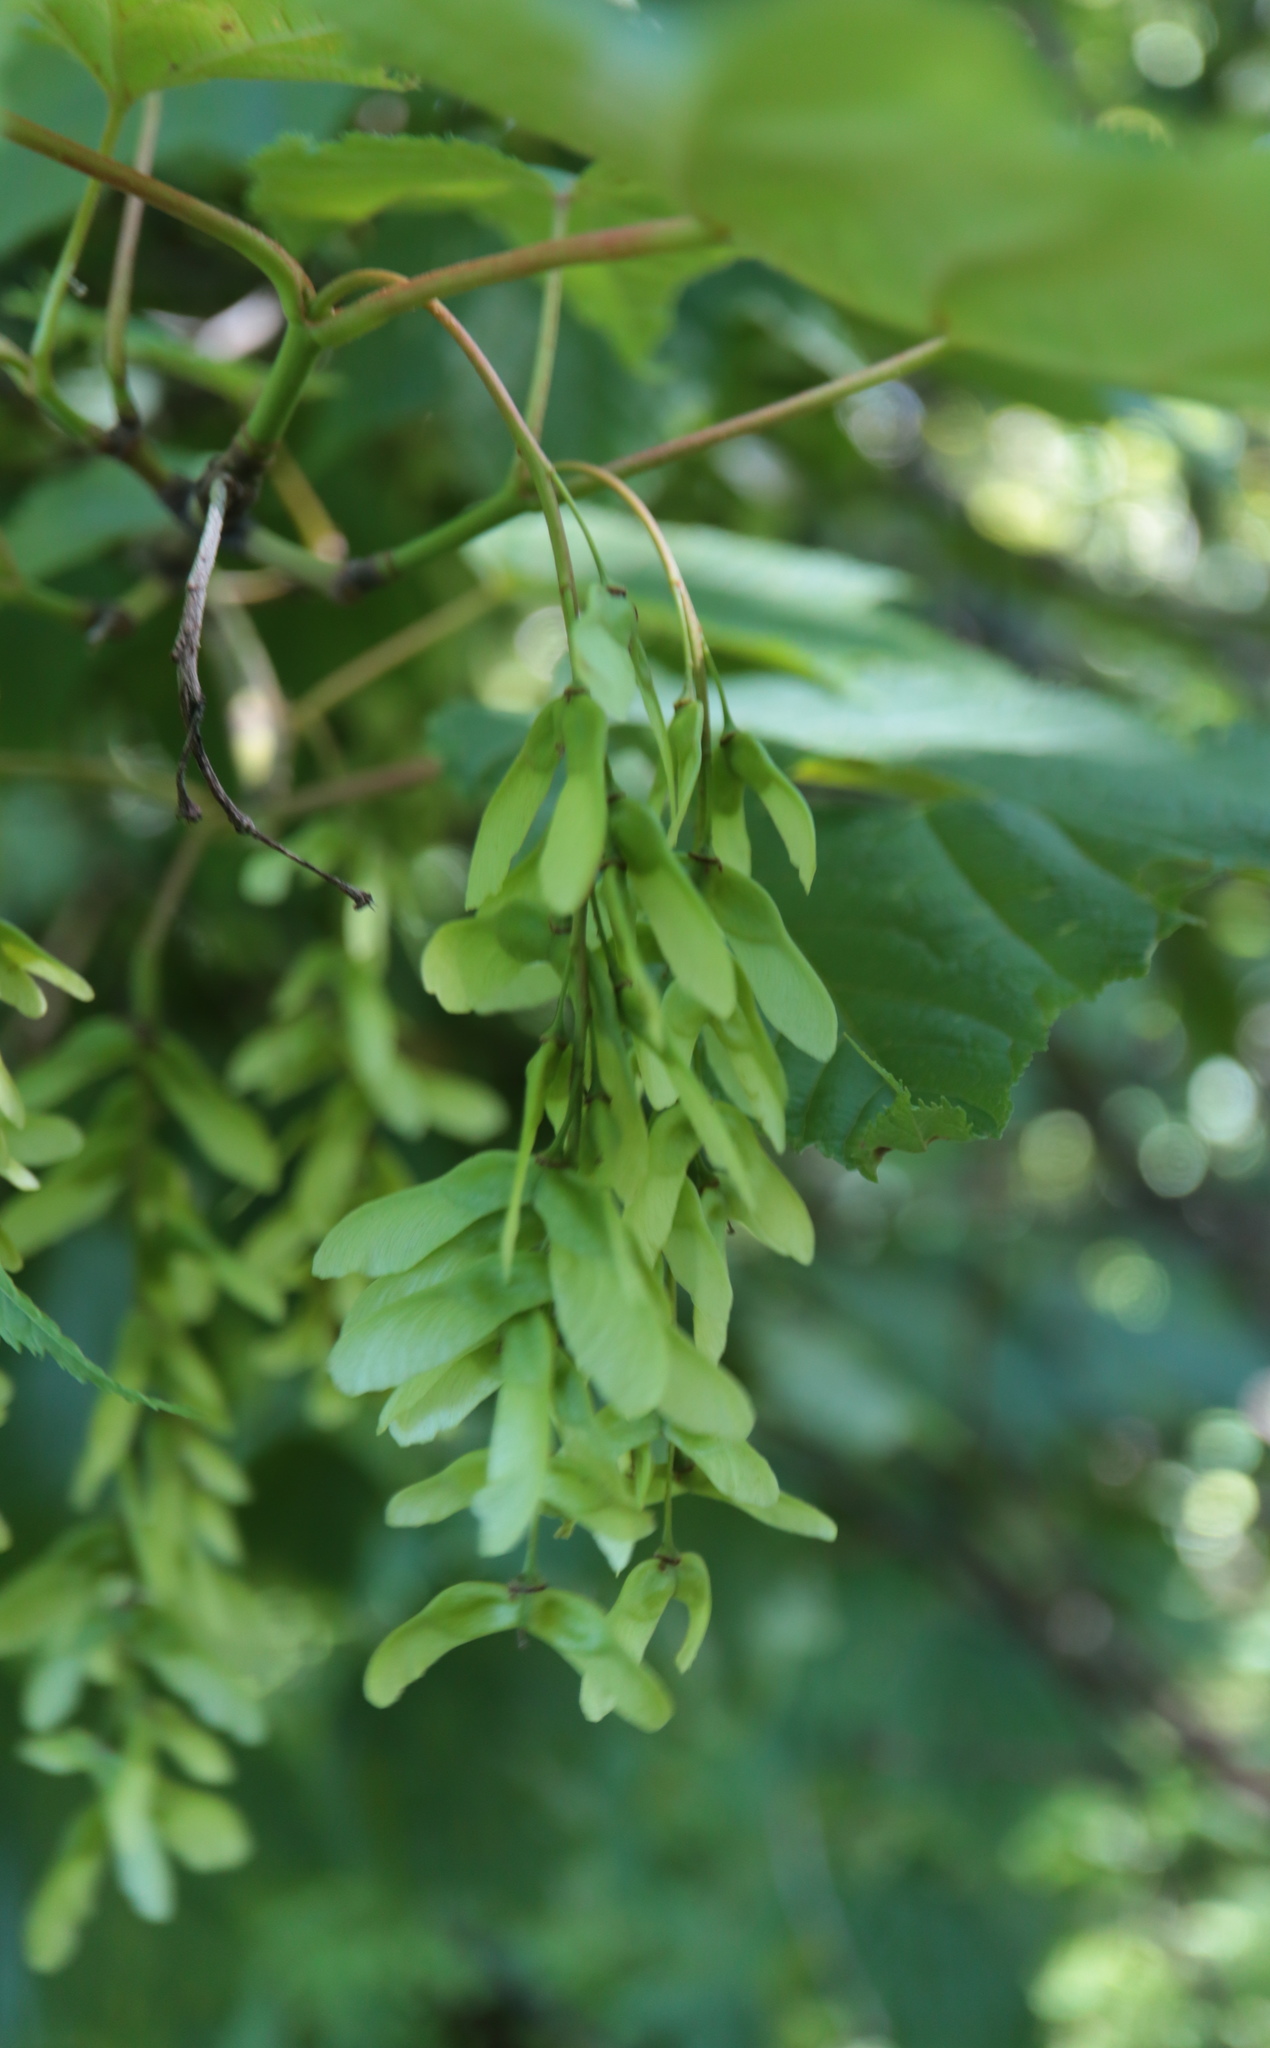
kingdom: Plantae
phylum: Tracheophyta
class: Magnoliopsida
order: Sapindales
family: Sapindaceae
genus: Acer
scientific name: Acer pensylvanicum
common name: Moosewood
